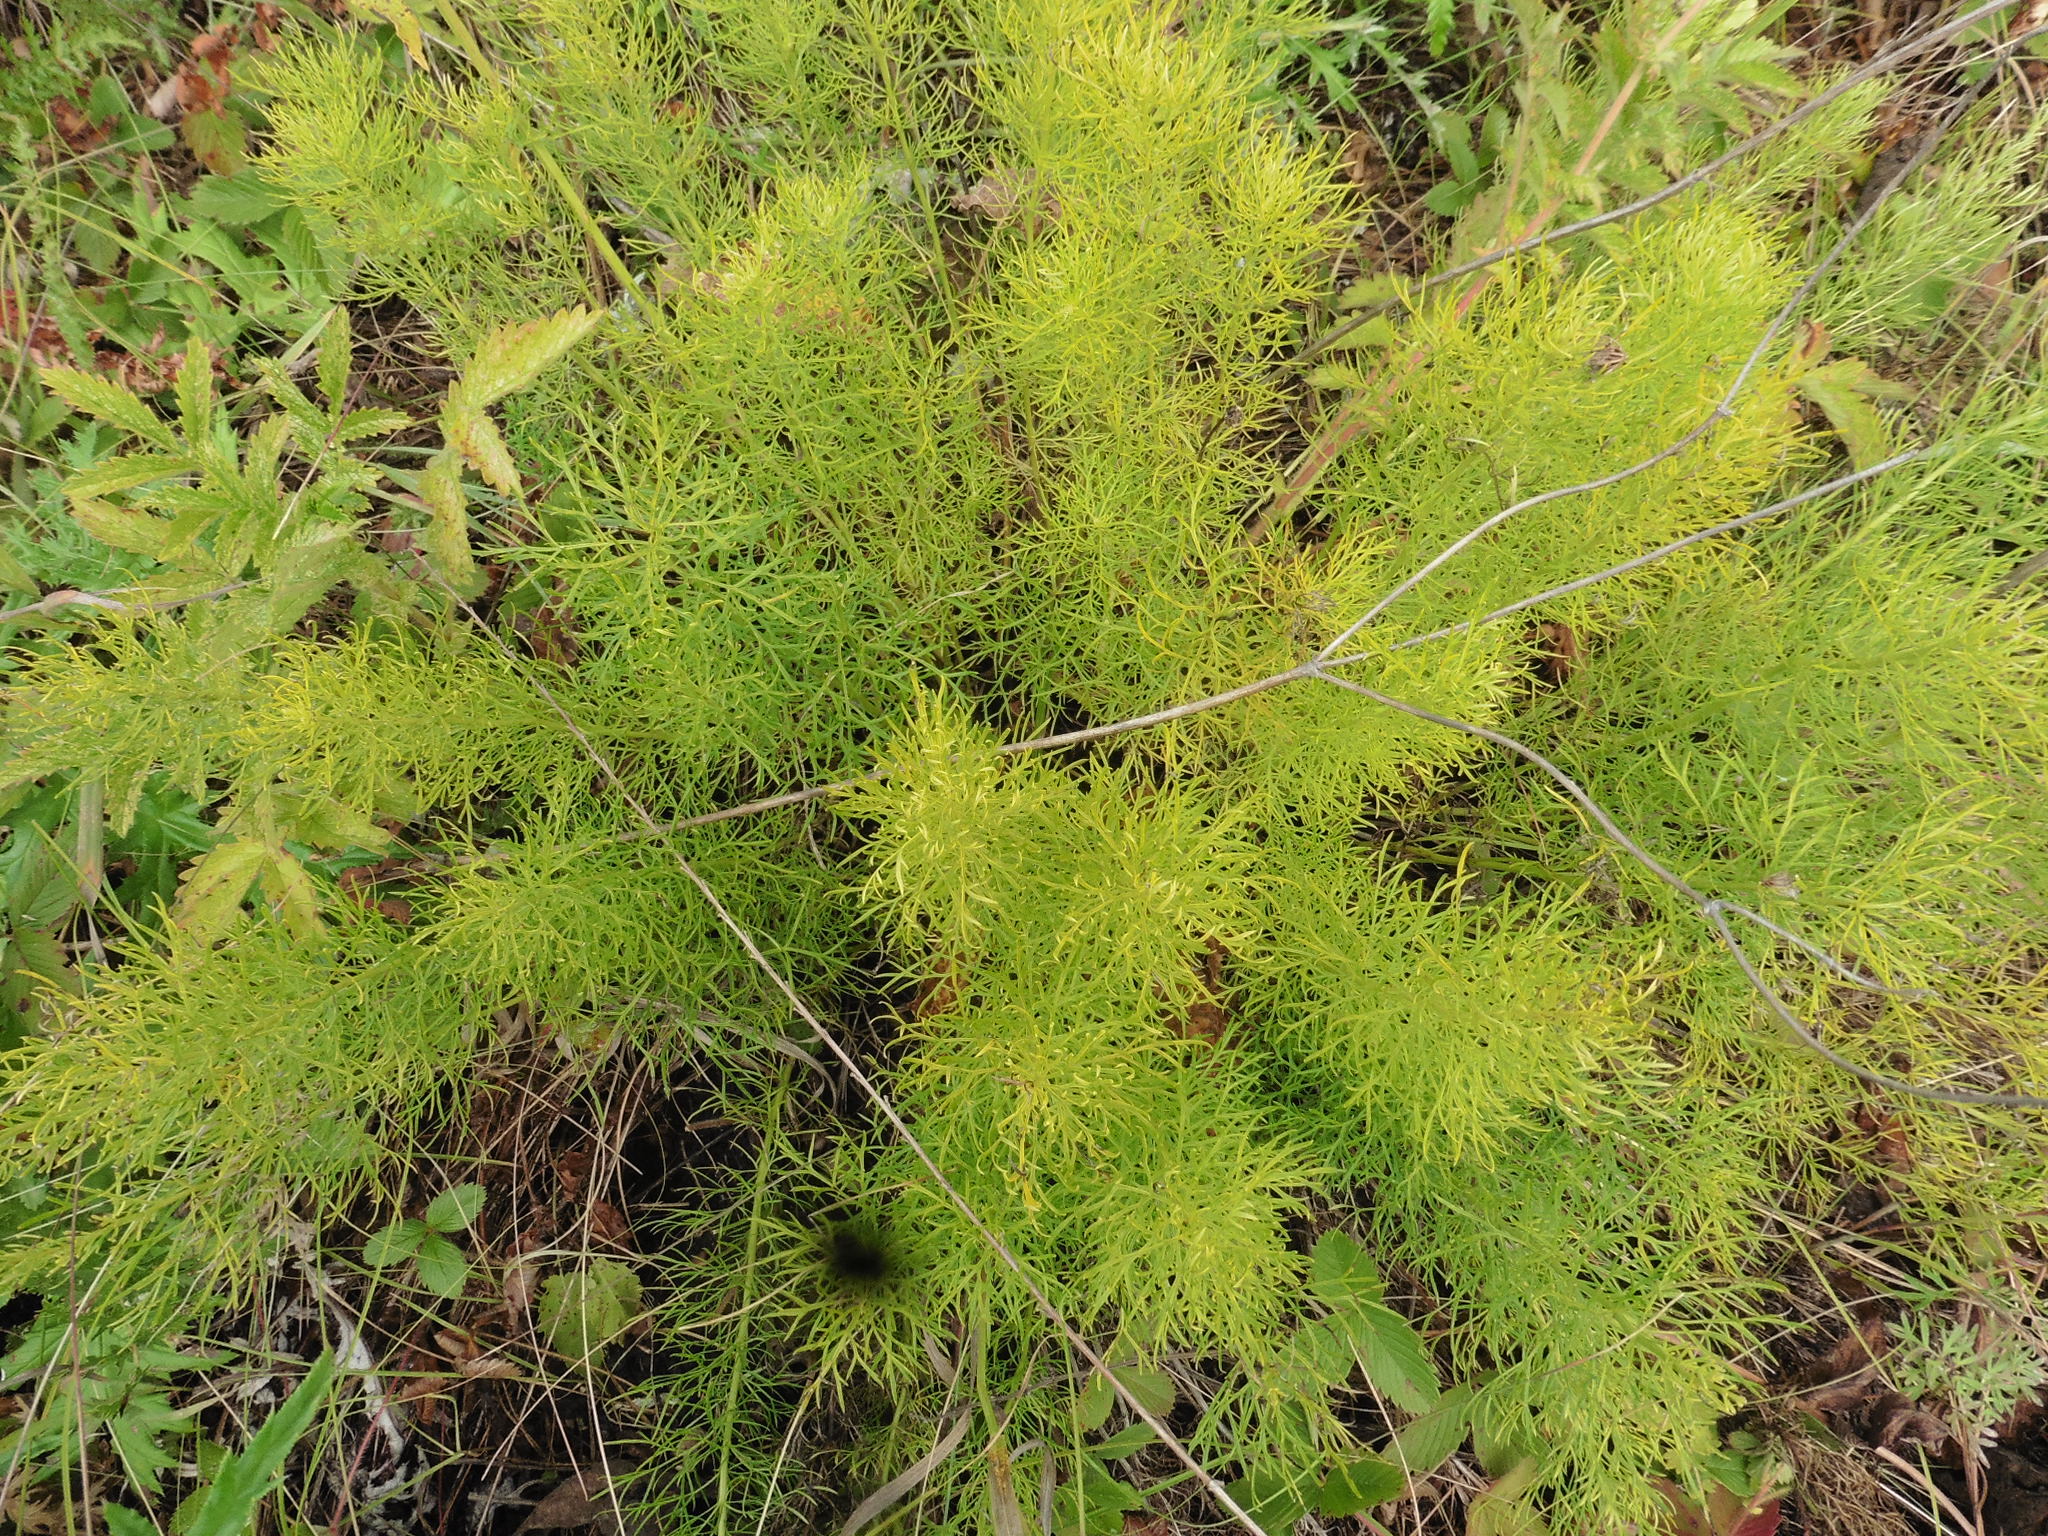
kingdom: Plantae
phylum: Tracheophyta
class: Magnoliopsida
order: Ranunculales
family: Ranunculaceae
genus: Adonis
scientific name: Adonis vernalis
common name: Yellow pheasants-eye
